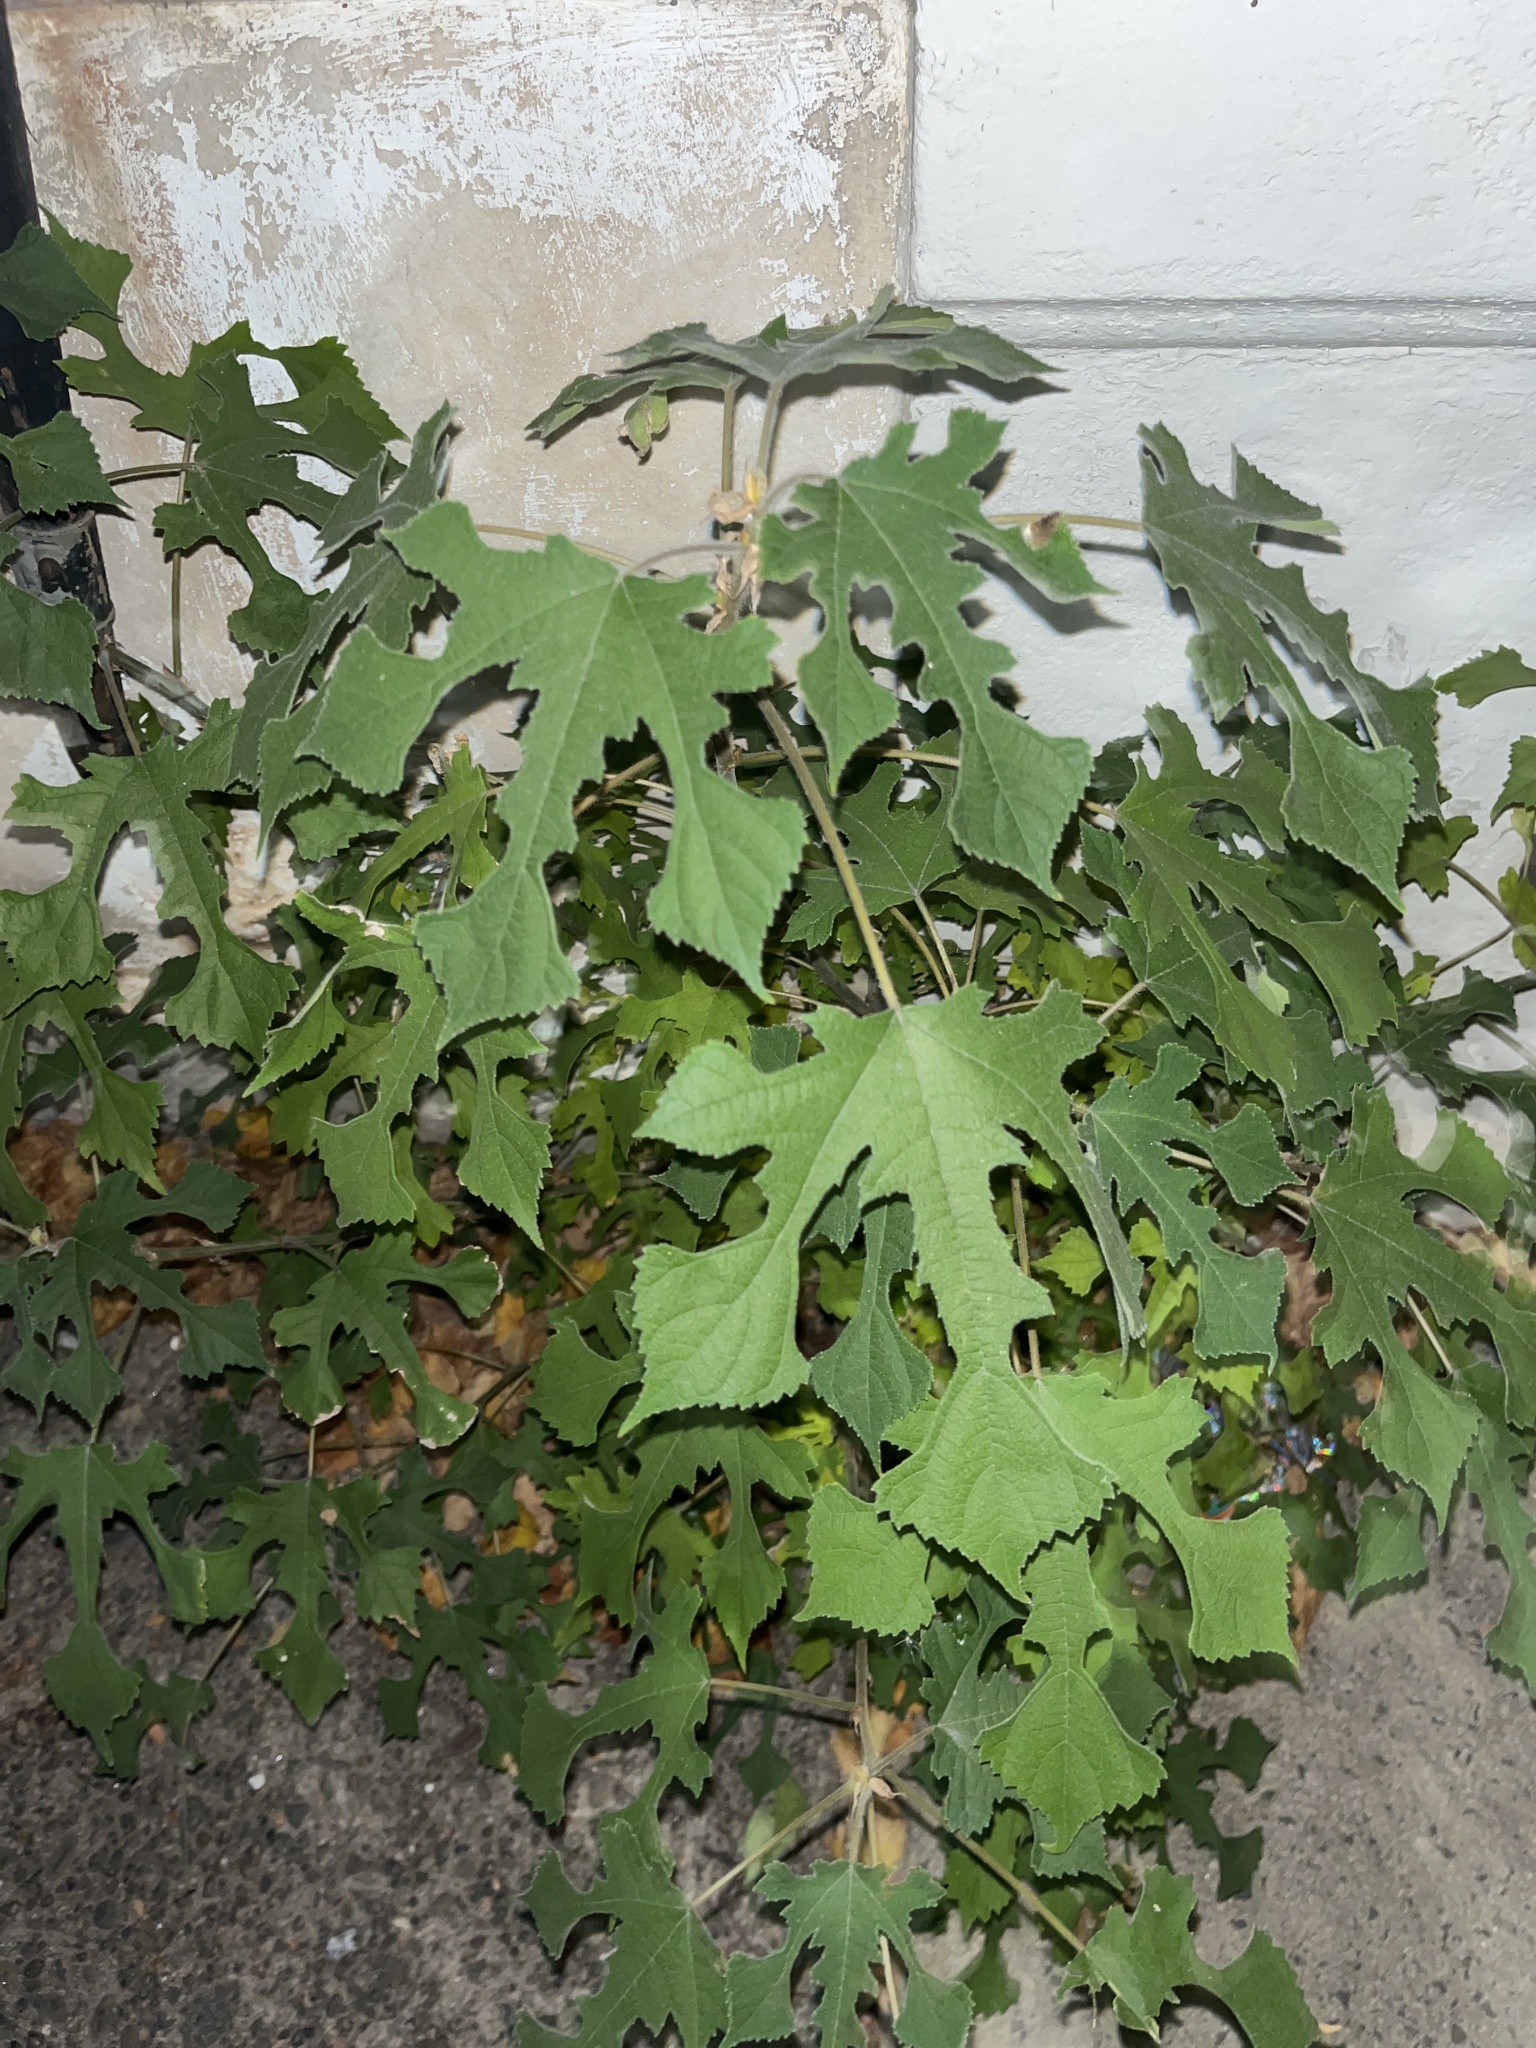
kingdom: Plantae
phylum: Tracheophyta
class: Magnoliopsida
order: Rosales
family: Moraceae
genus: Broussonetia
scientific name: Broussonetia papyrifera
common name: Paper mulberry
